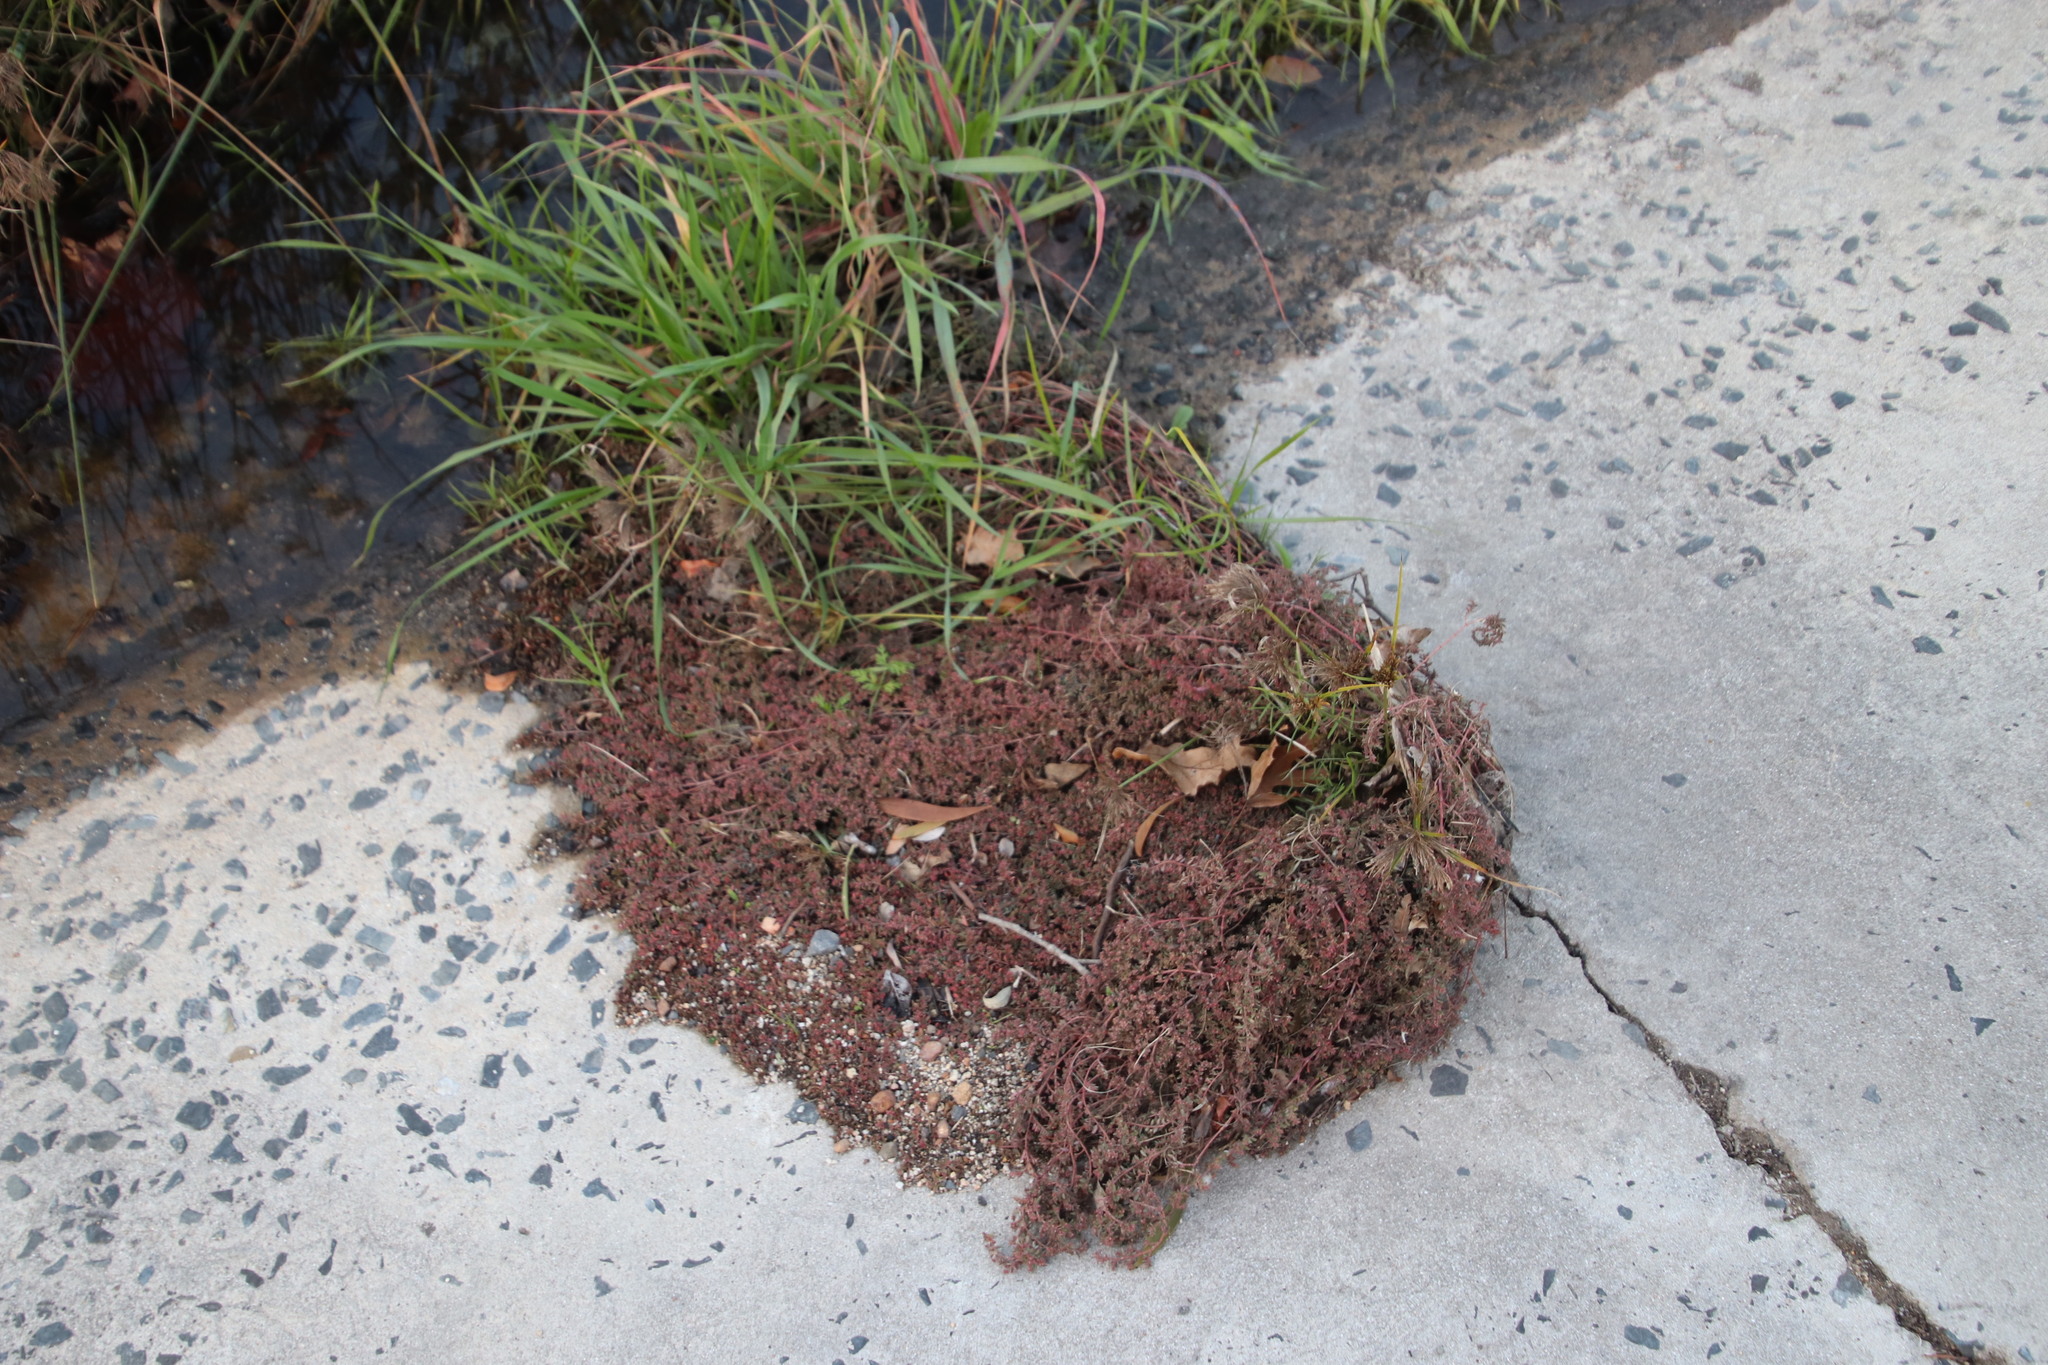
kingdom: Plantae
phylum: Tracheophyta
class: Magnoliopsida
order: Malpighiales
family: Euphorbiaceae
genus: Euphorbia
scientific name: Euphorbia maculata
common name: Spotted spurge
